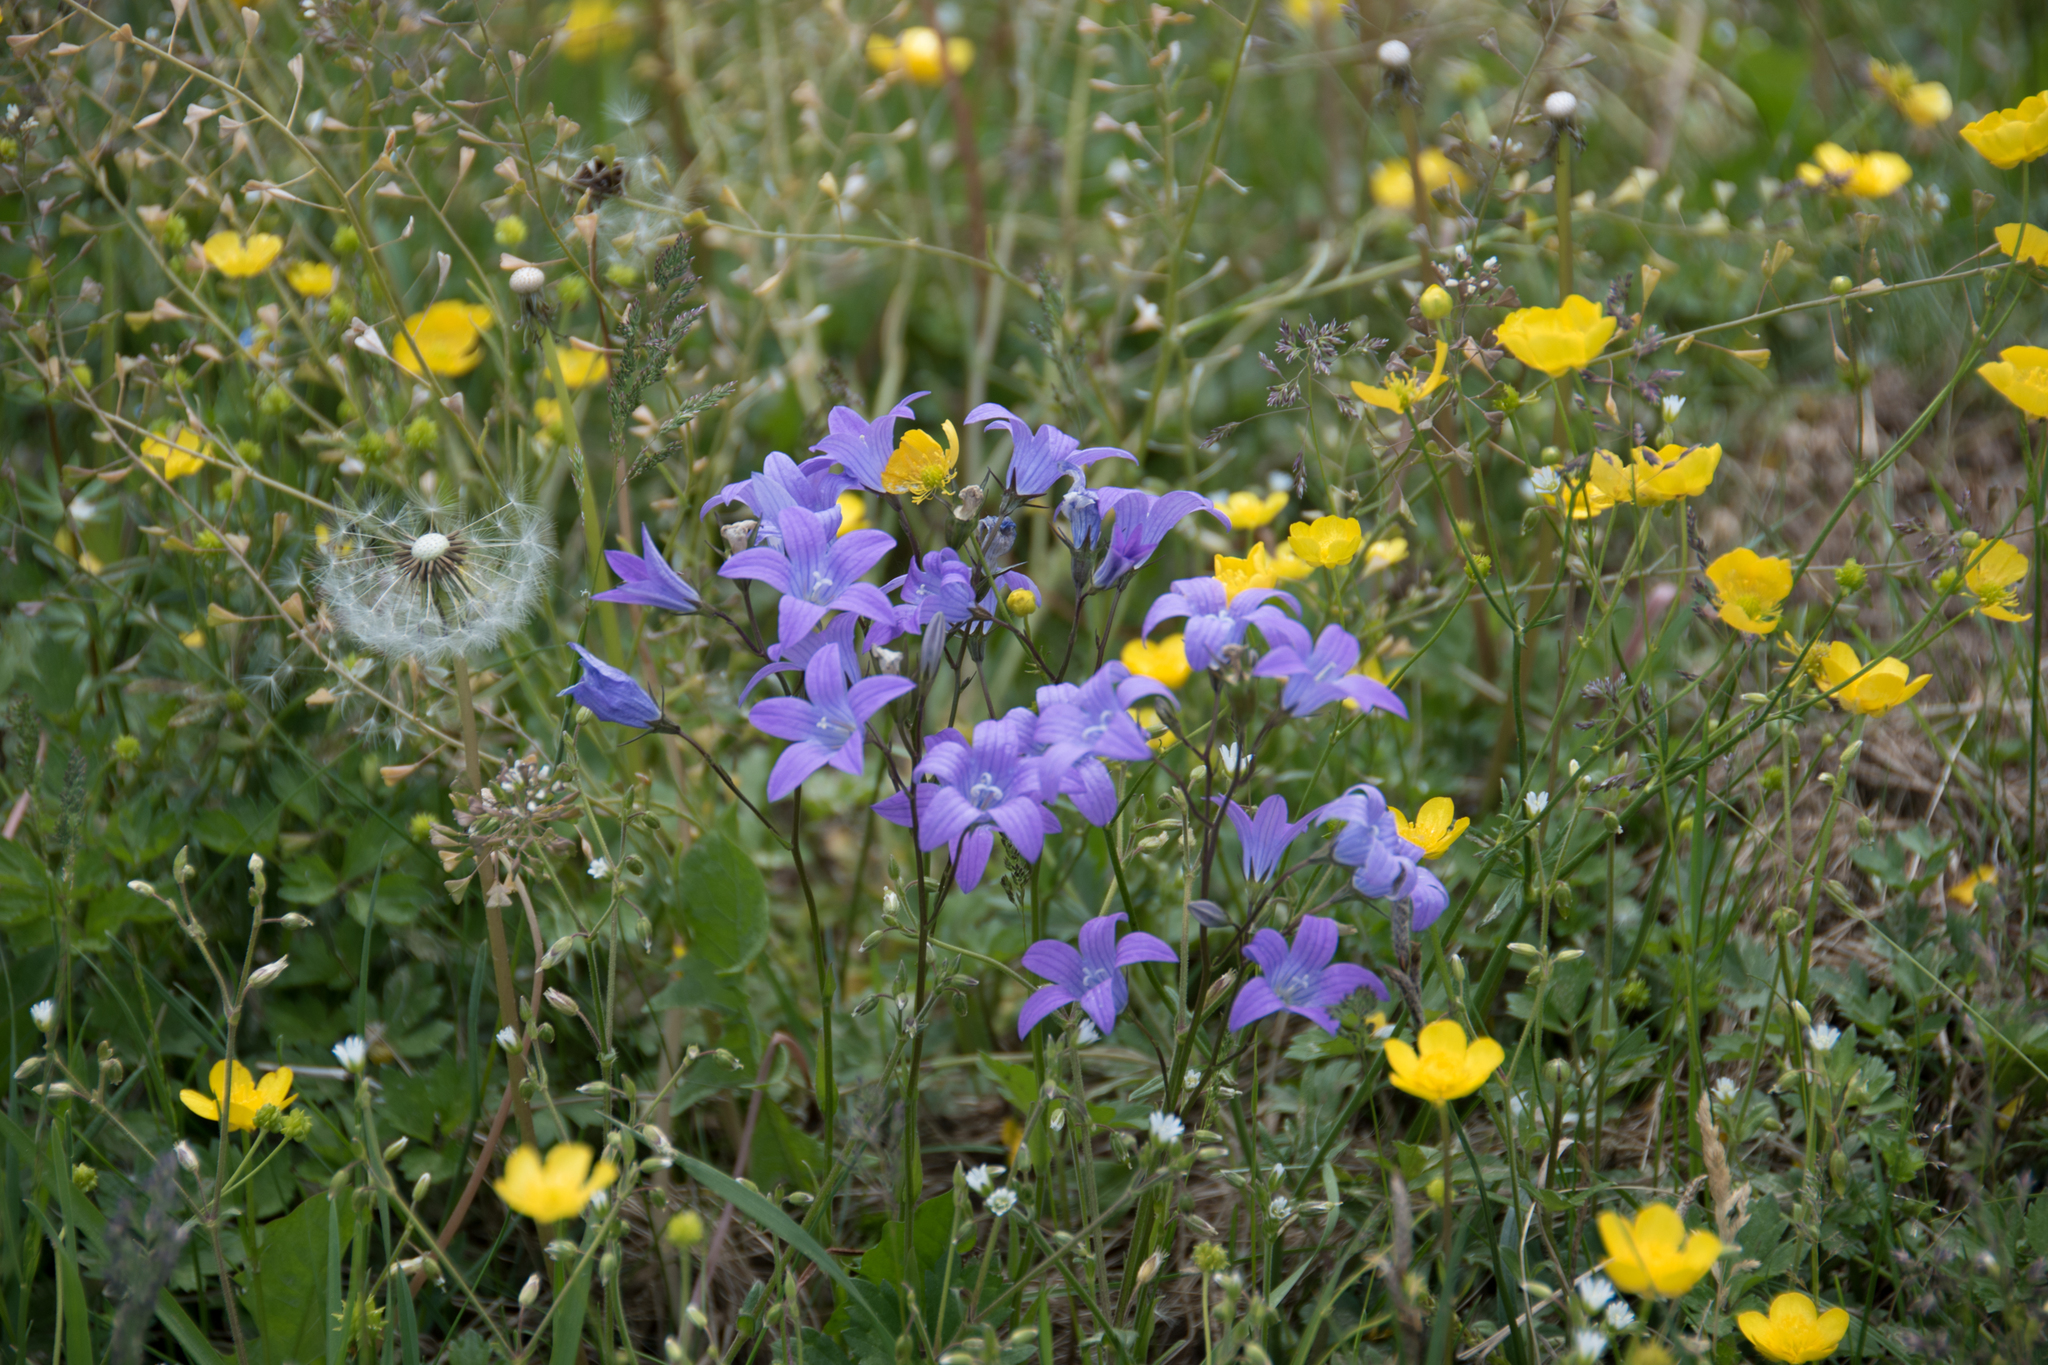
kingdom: Plantae
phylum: Tracheophyta
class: Magnoliopsida
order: Asterales
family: Campanulaceae
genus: Campanula
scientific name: Campanula patula
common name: Spreading bellflower
